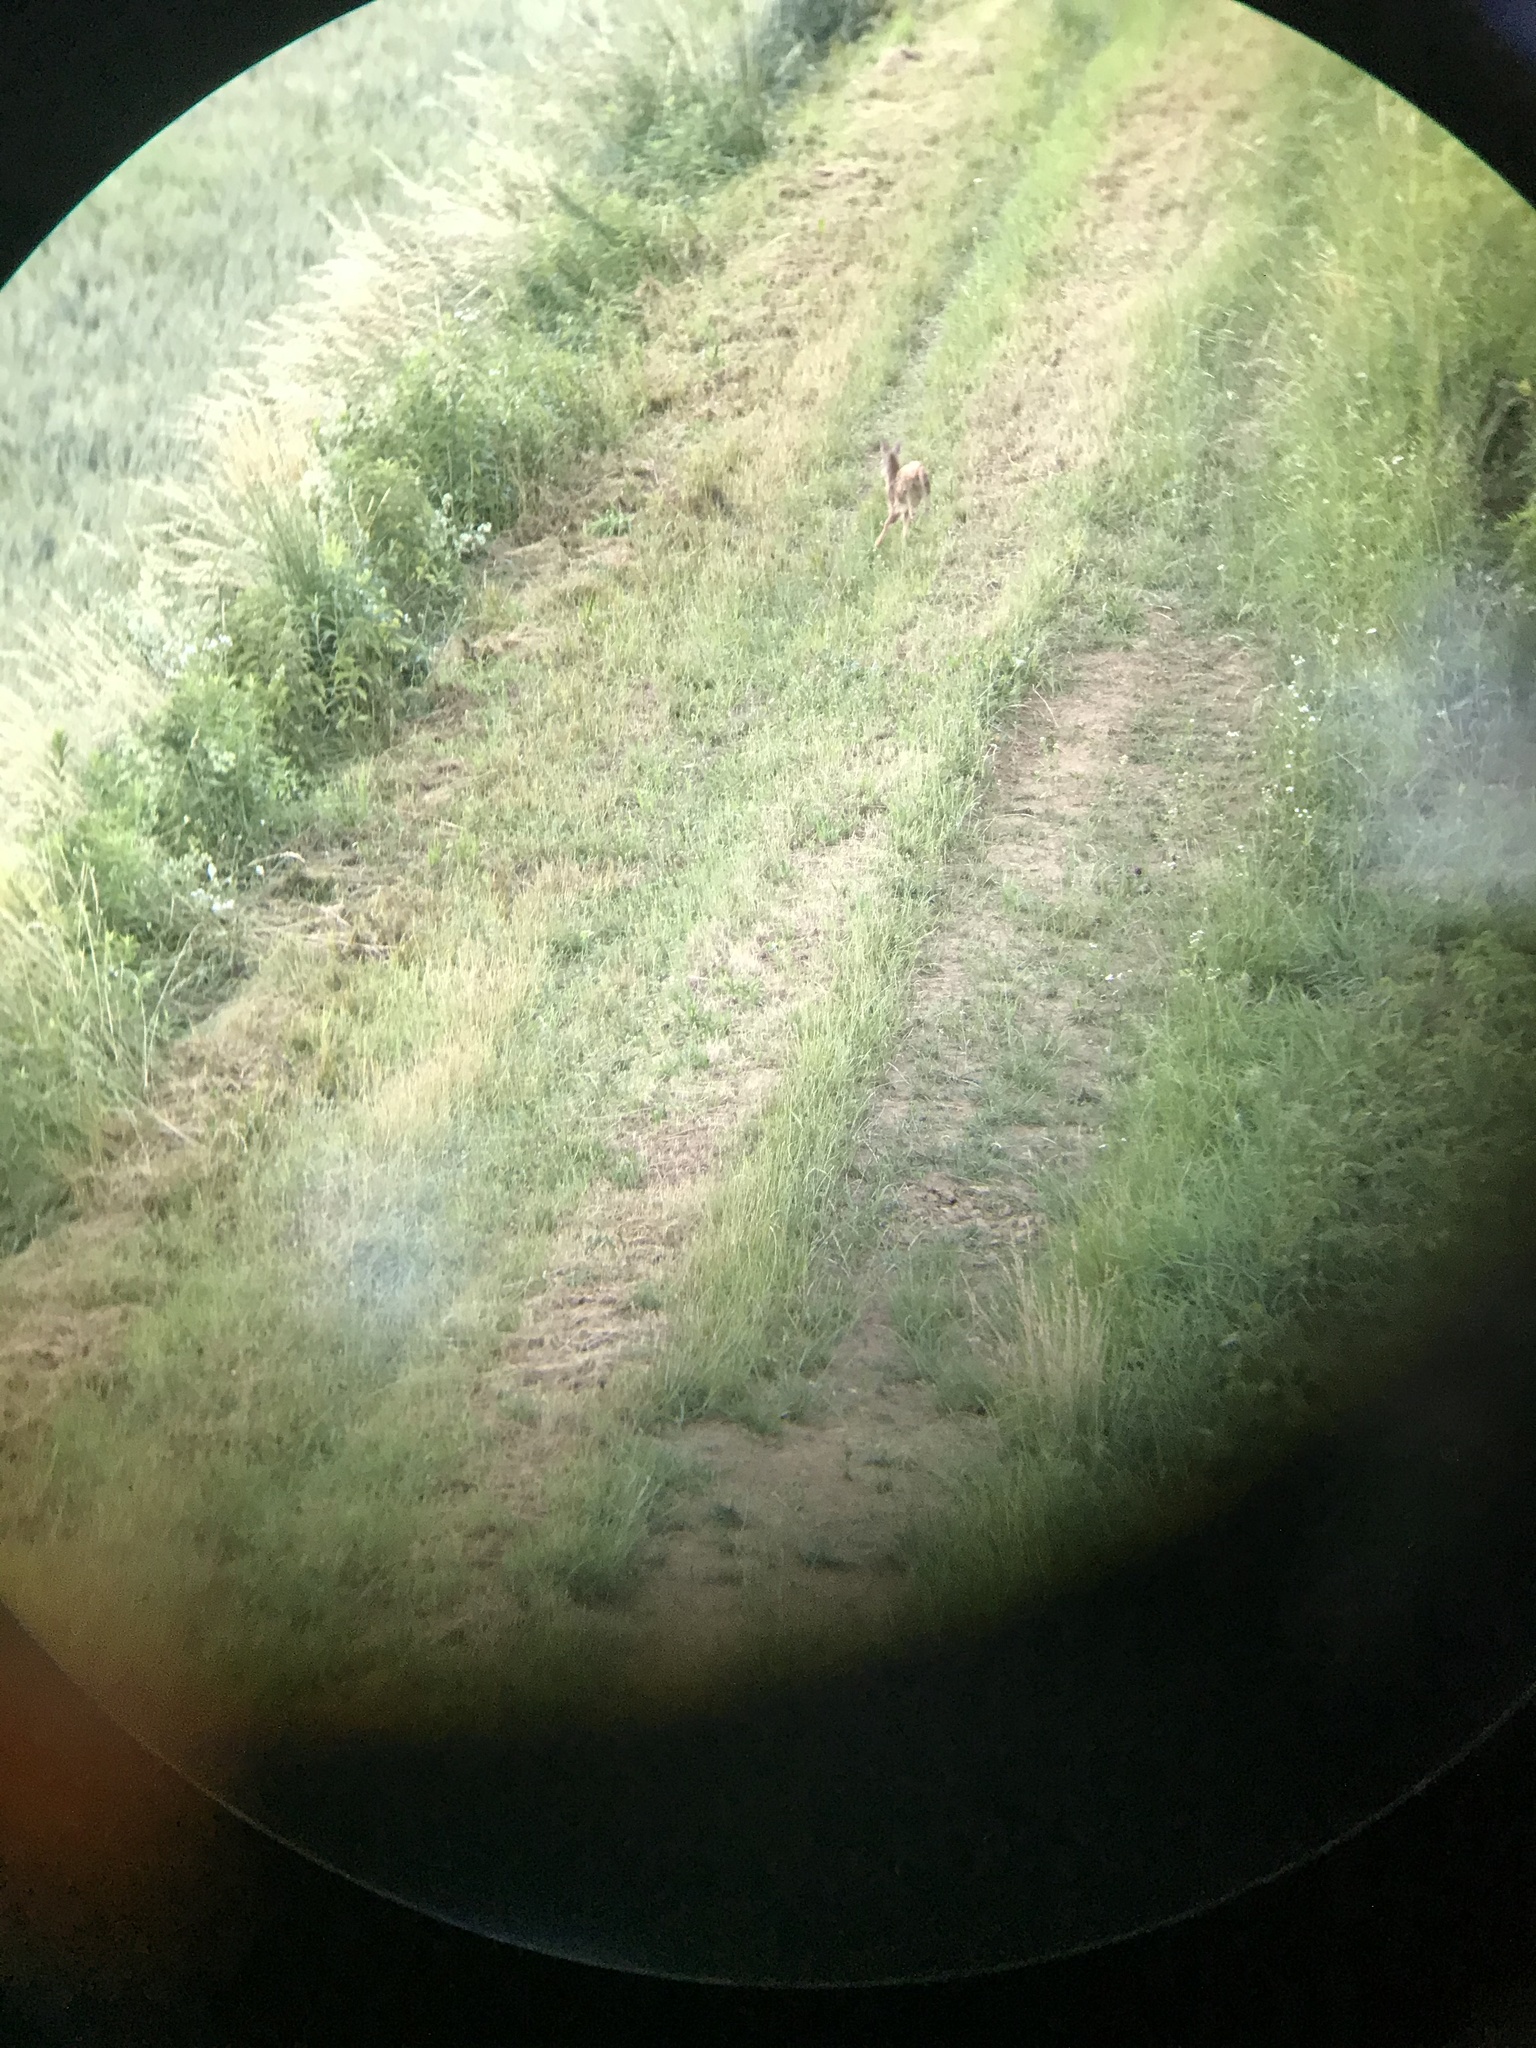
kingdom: Animalia
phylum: Chordata
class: Mammalia
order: Artiodactyla
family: Cervidae
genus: Capreolus
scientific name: Capreolus capreolus
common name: Western roe deer
